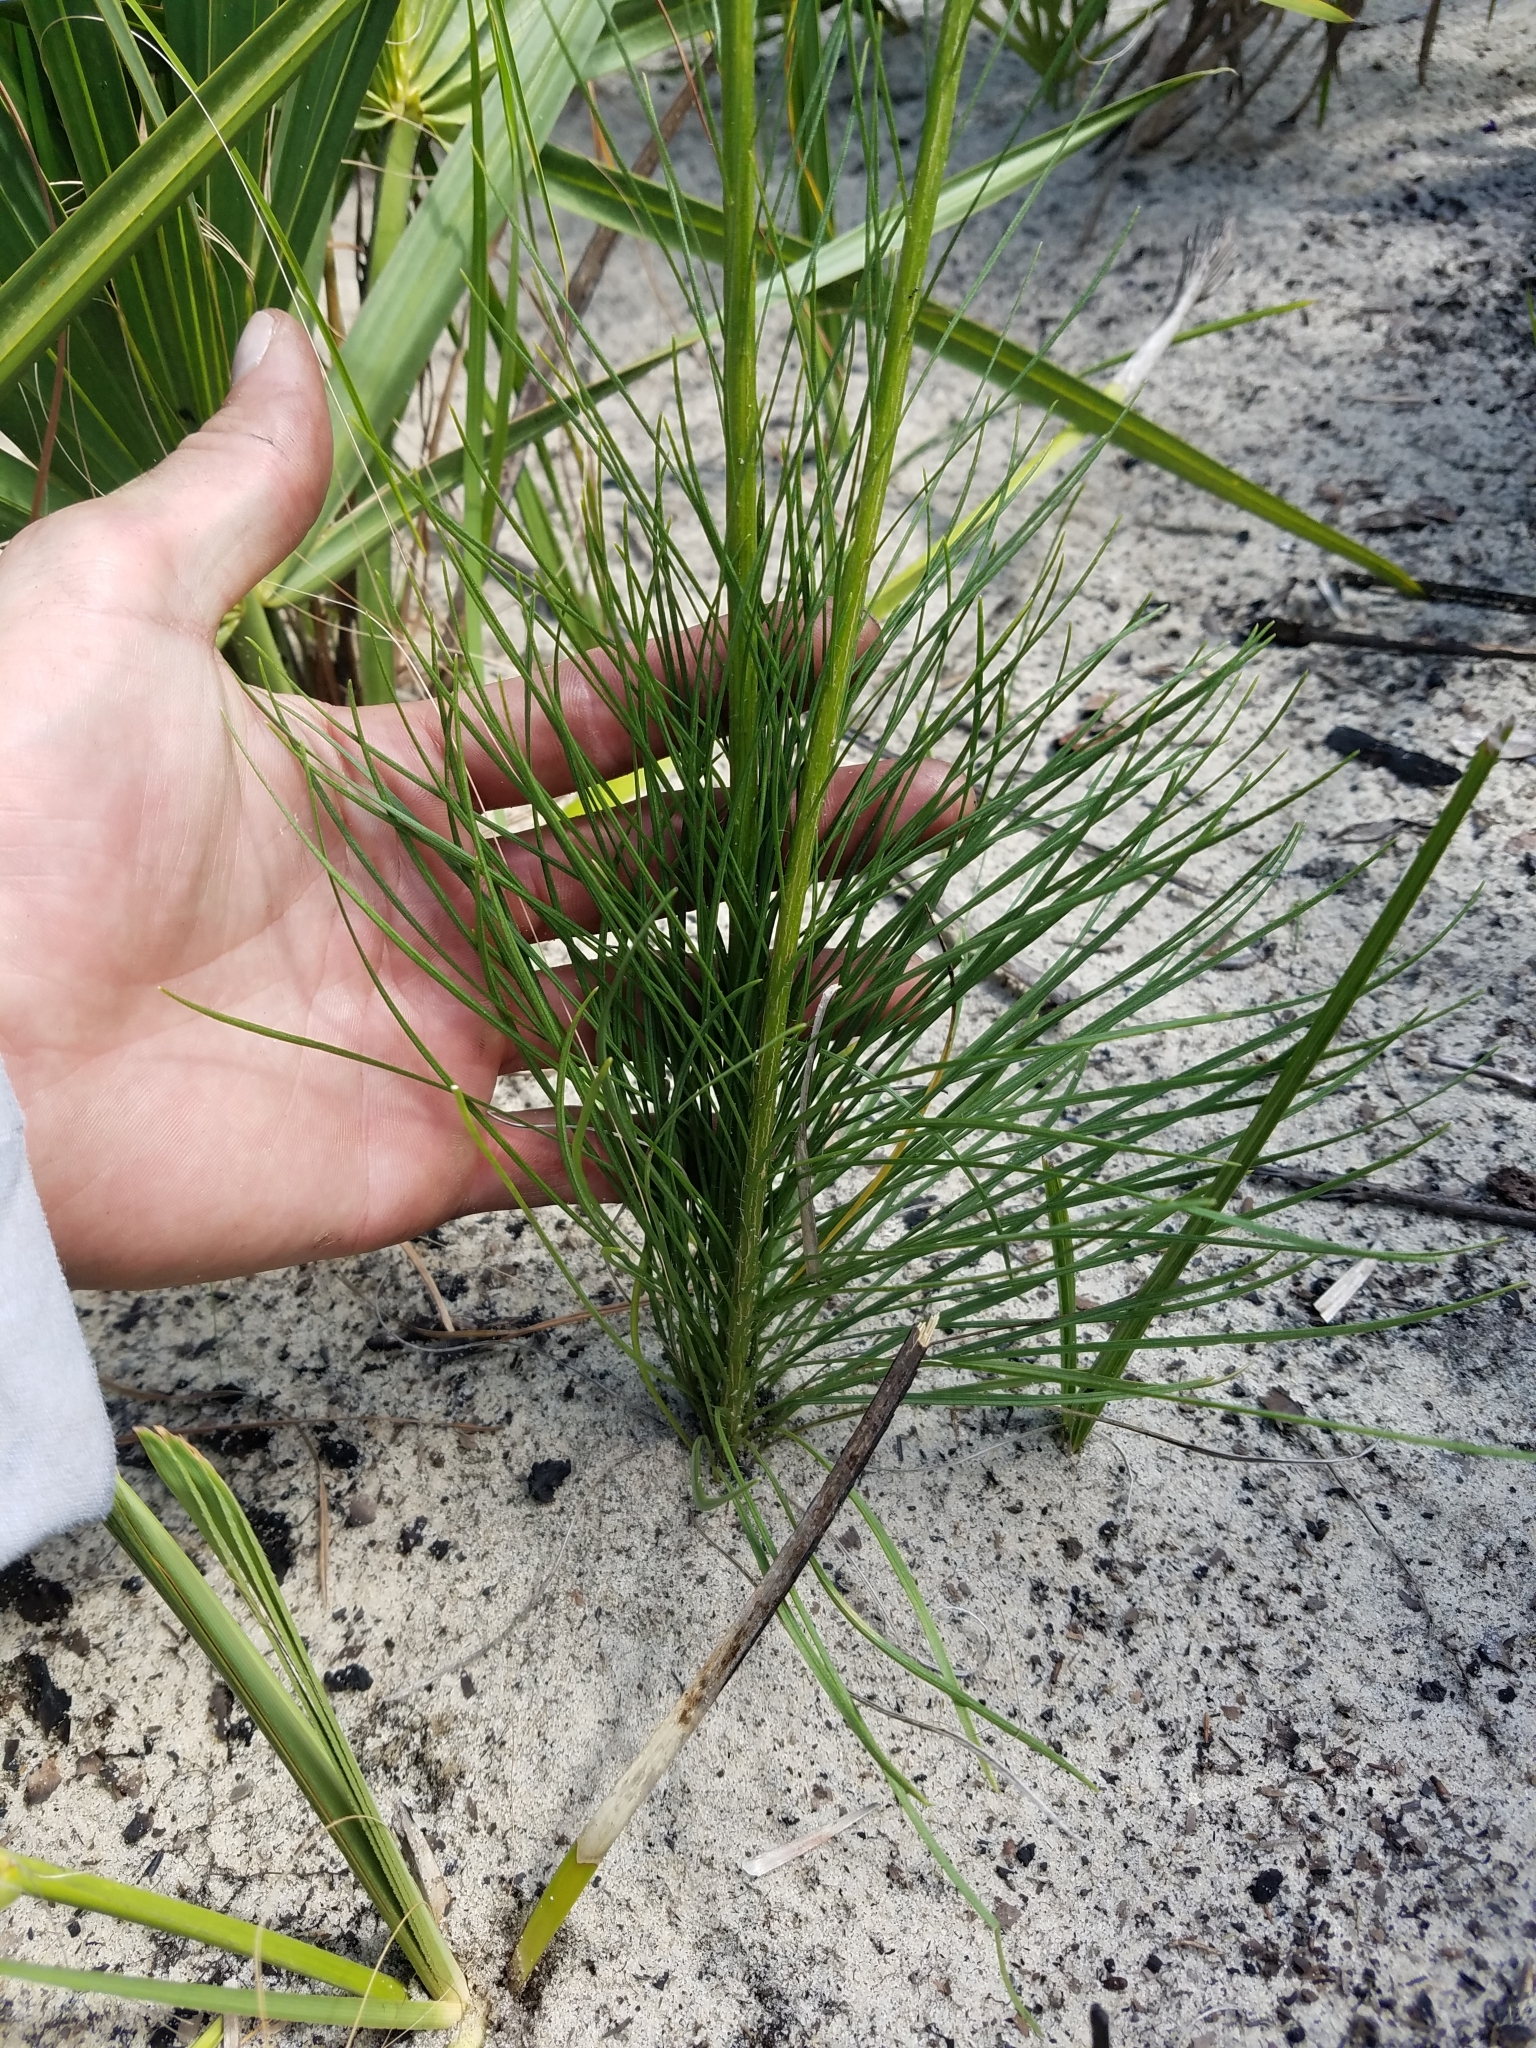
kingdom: Plantae
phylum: Tracheophyta
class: Magnoliopsida
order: Asterales
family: Asteraceae
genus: Liatris
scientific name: Liatris tenuifolia
